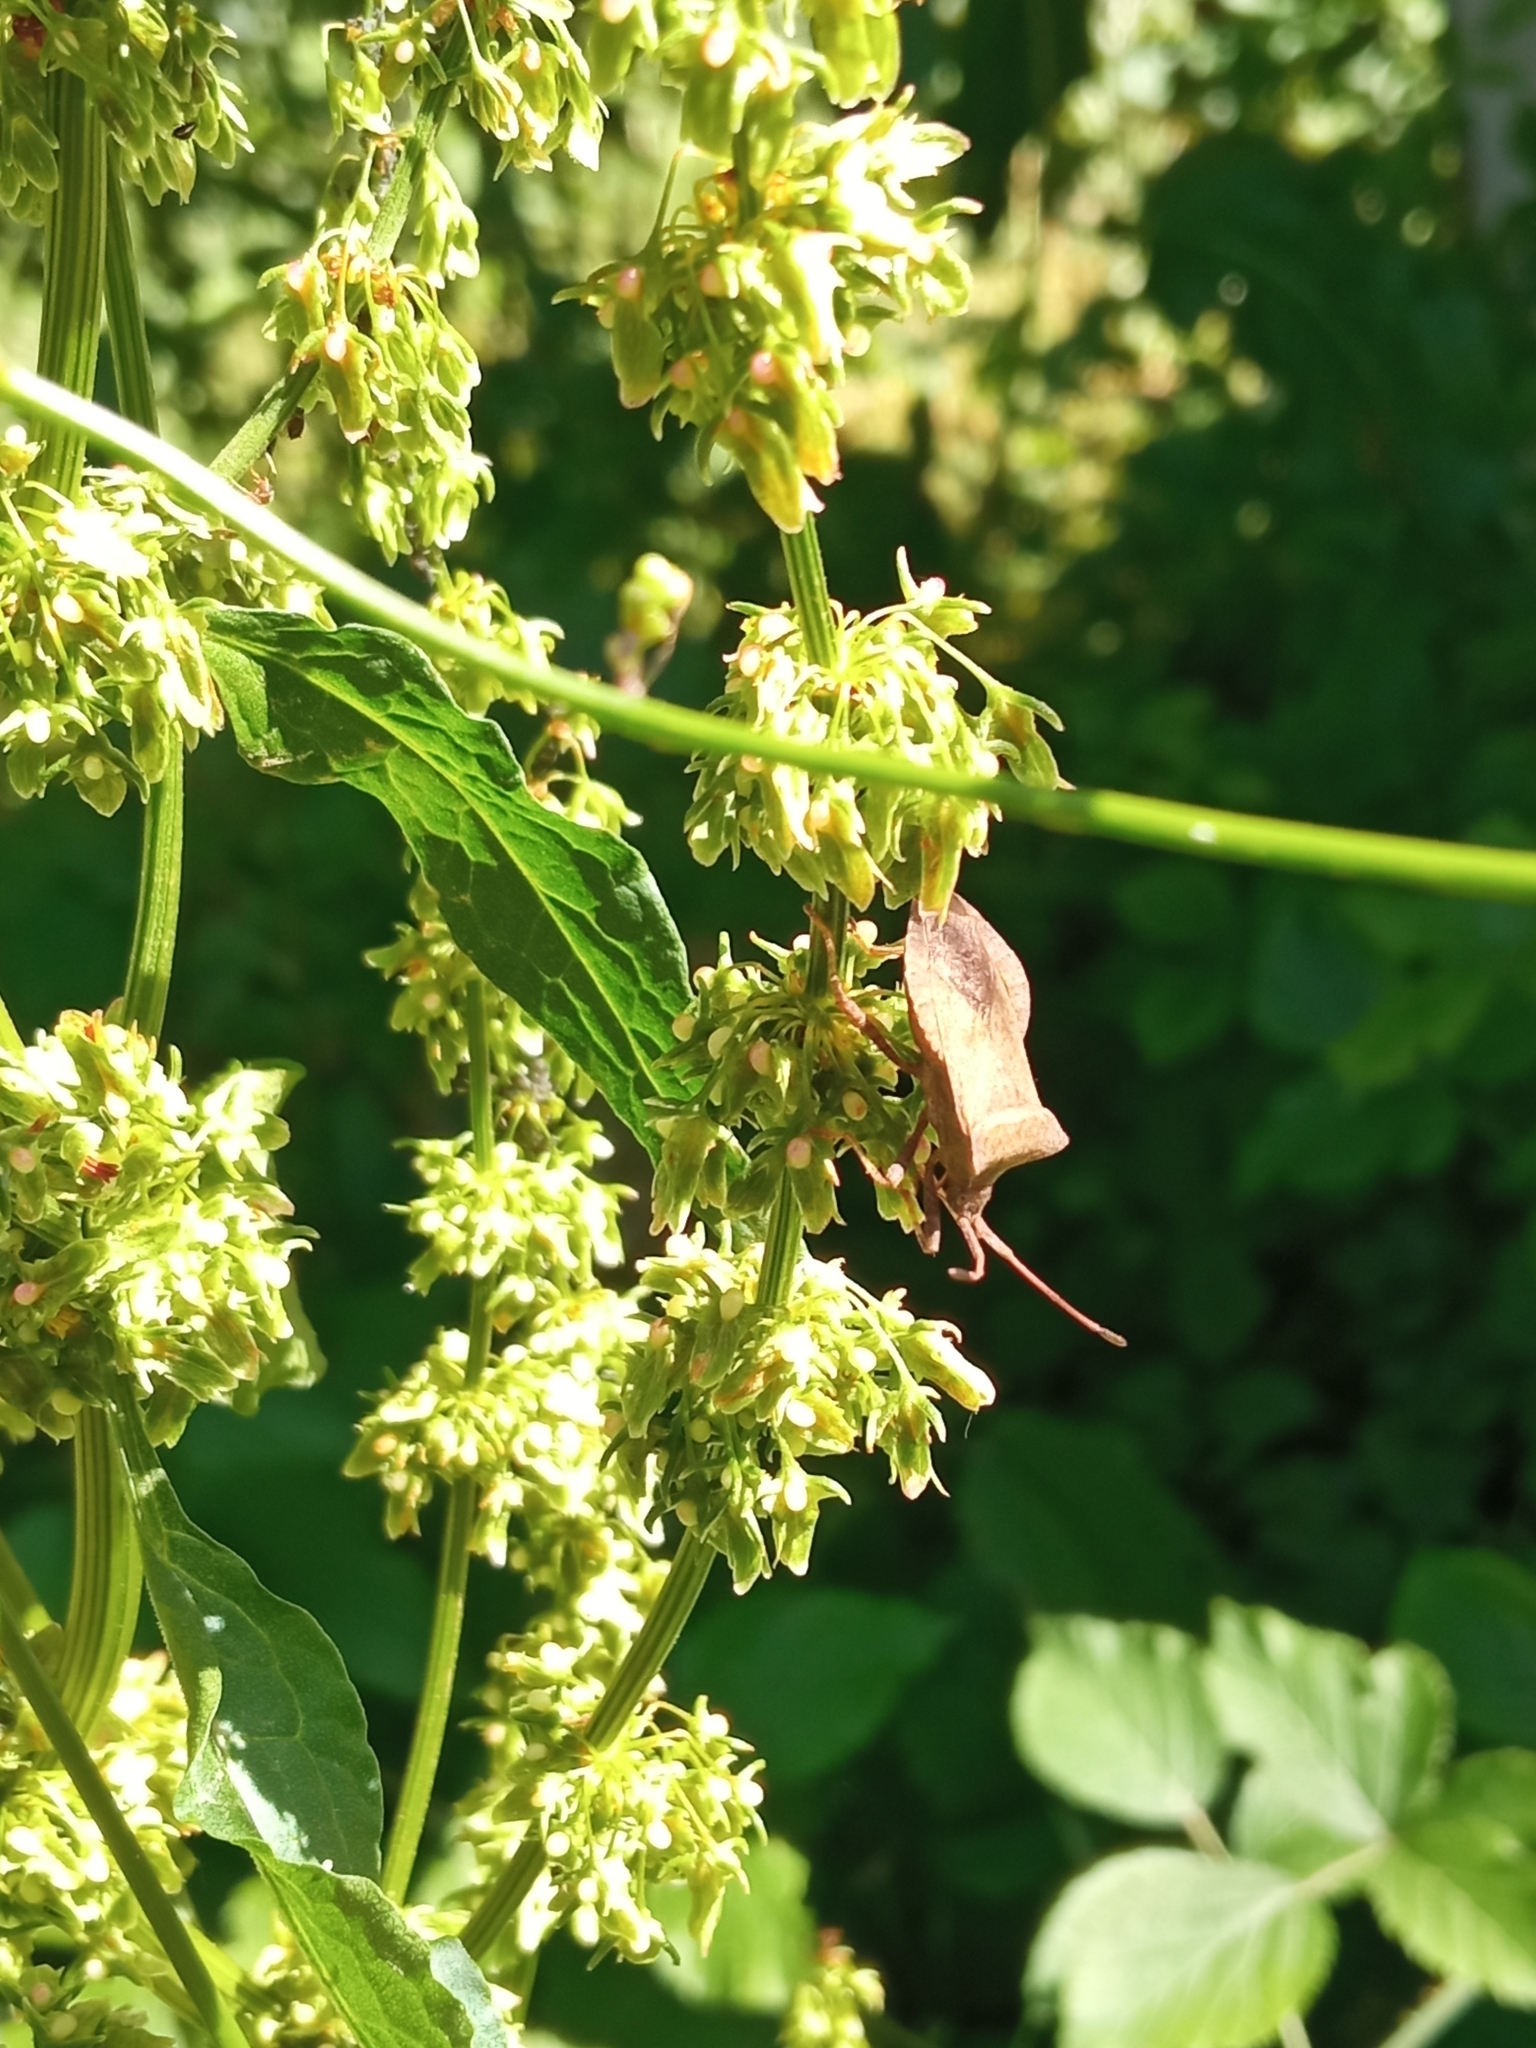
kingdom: Animalia
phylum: Arthropoda
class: Insecta
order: Hemiptera
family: Coreidae
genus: Coreus
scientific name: Coreus marginatus
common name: Dock bug
